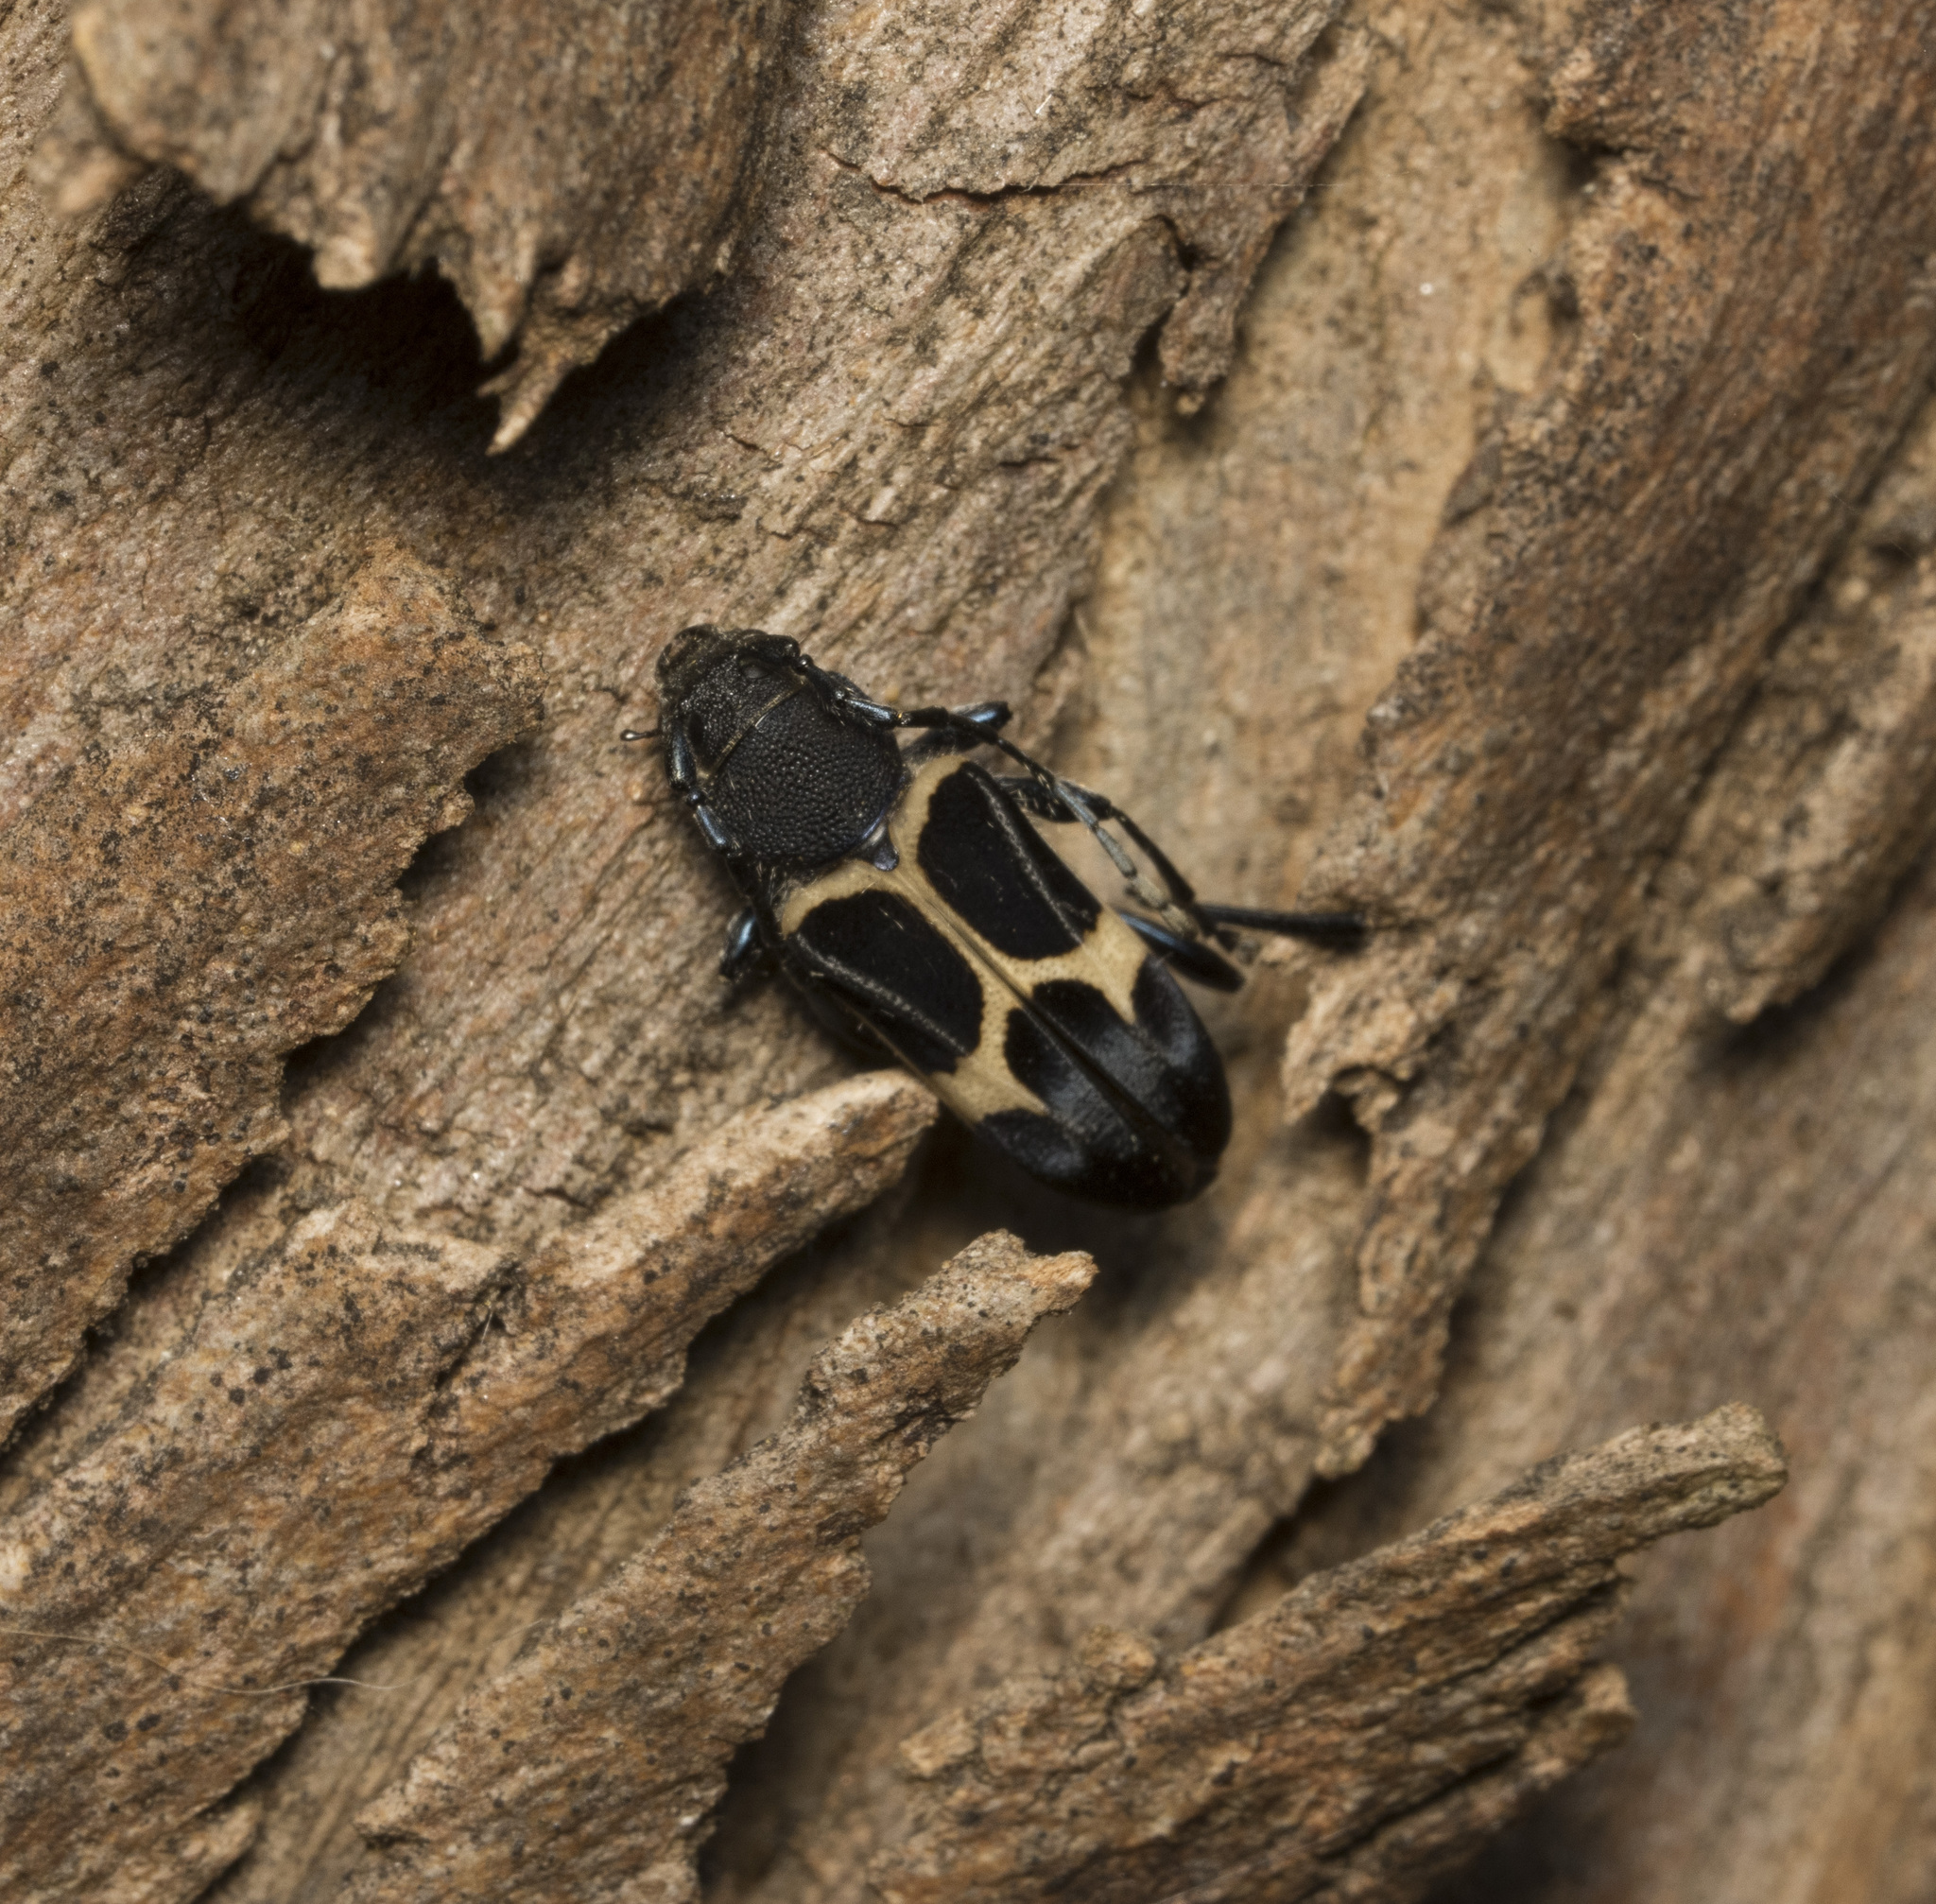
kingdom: Animalia
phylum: Arthropoda
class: Insecta
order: Coleoptera
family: Cerambycidae
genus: Calydon
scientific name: Calydon submetallicum
